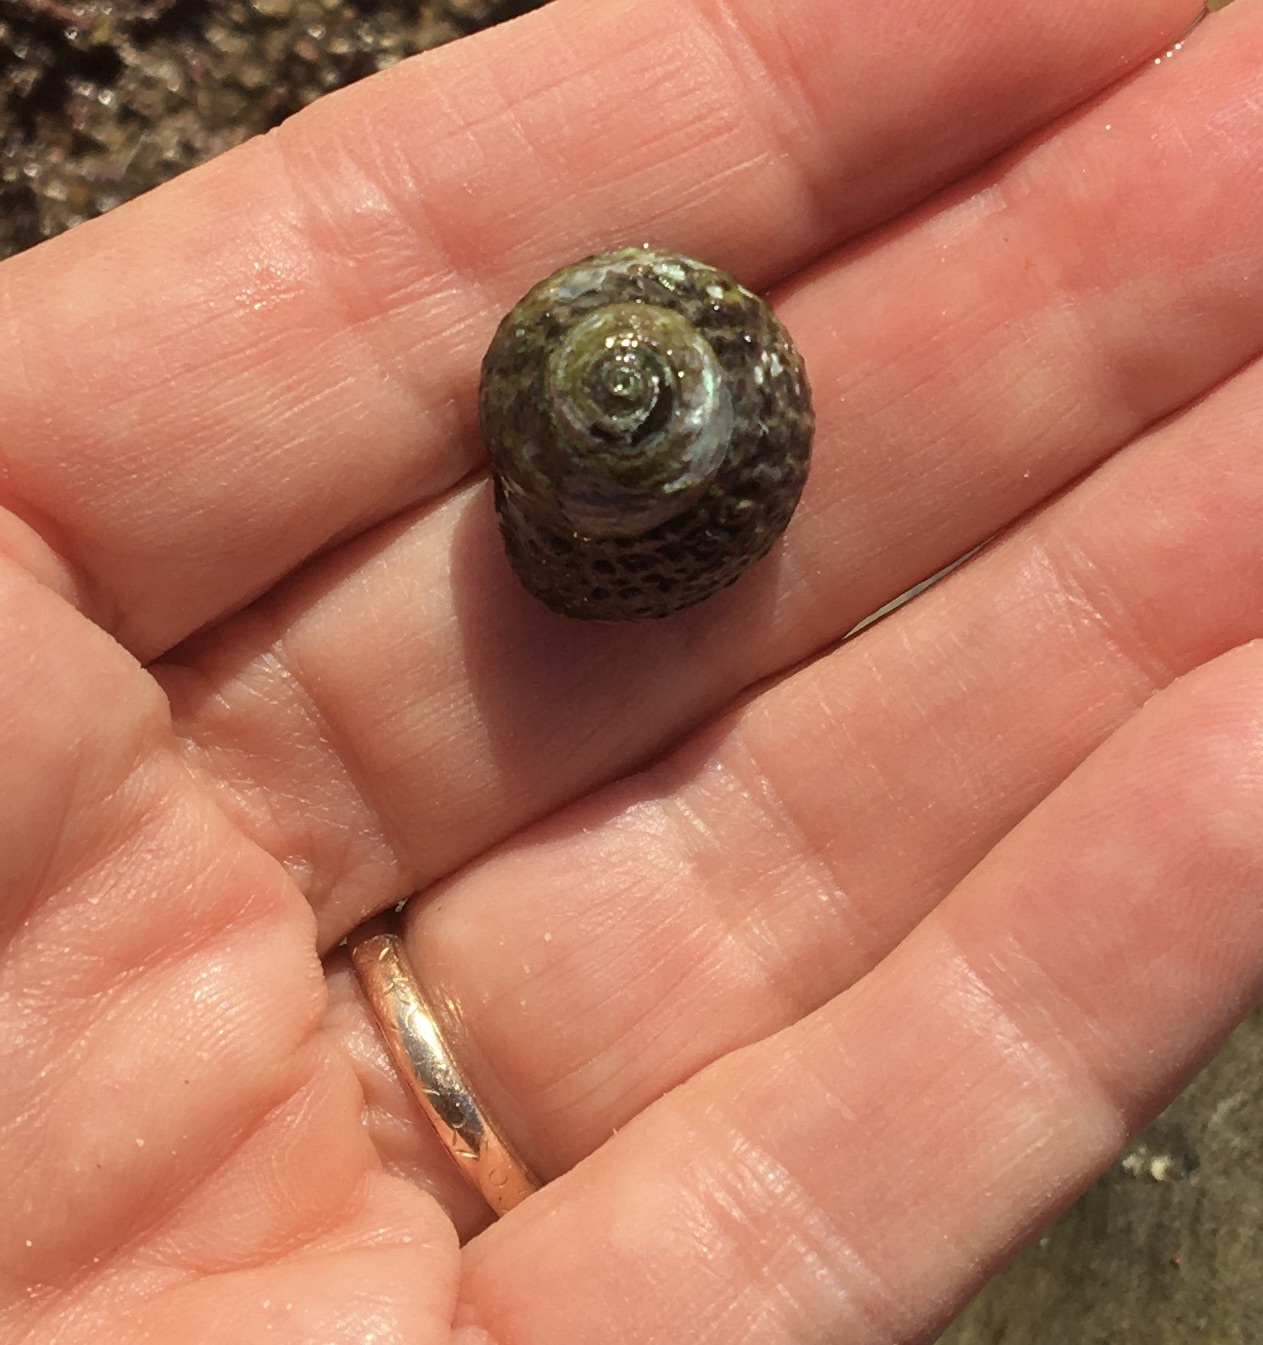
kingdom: Animalia
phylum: Mollusca
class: Gastropoda
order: Trochida
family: Tegulidae
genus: Tegula
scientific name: Tegula eiseni
